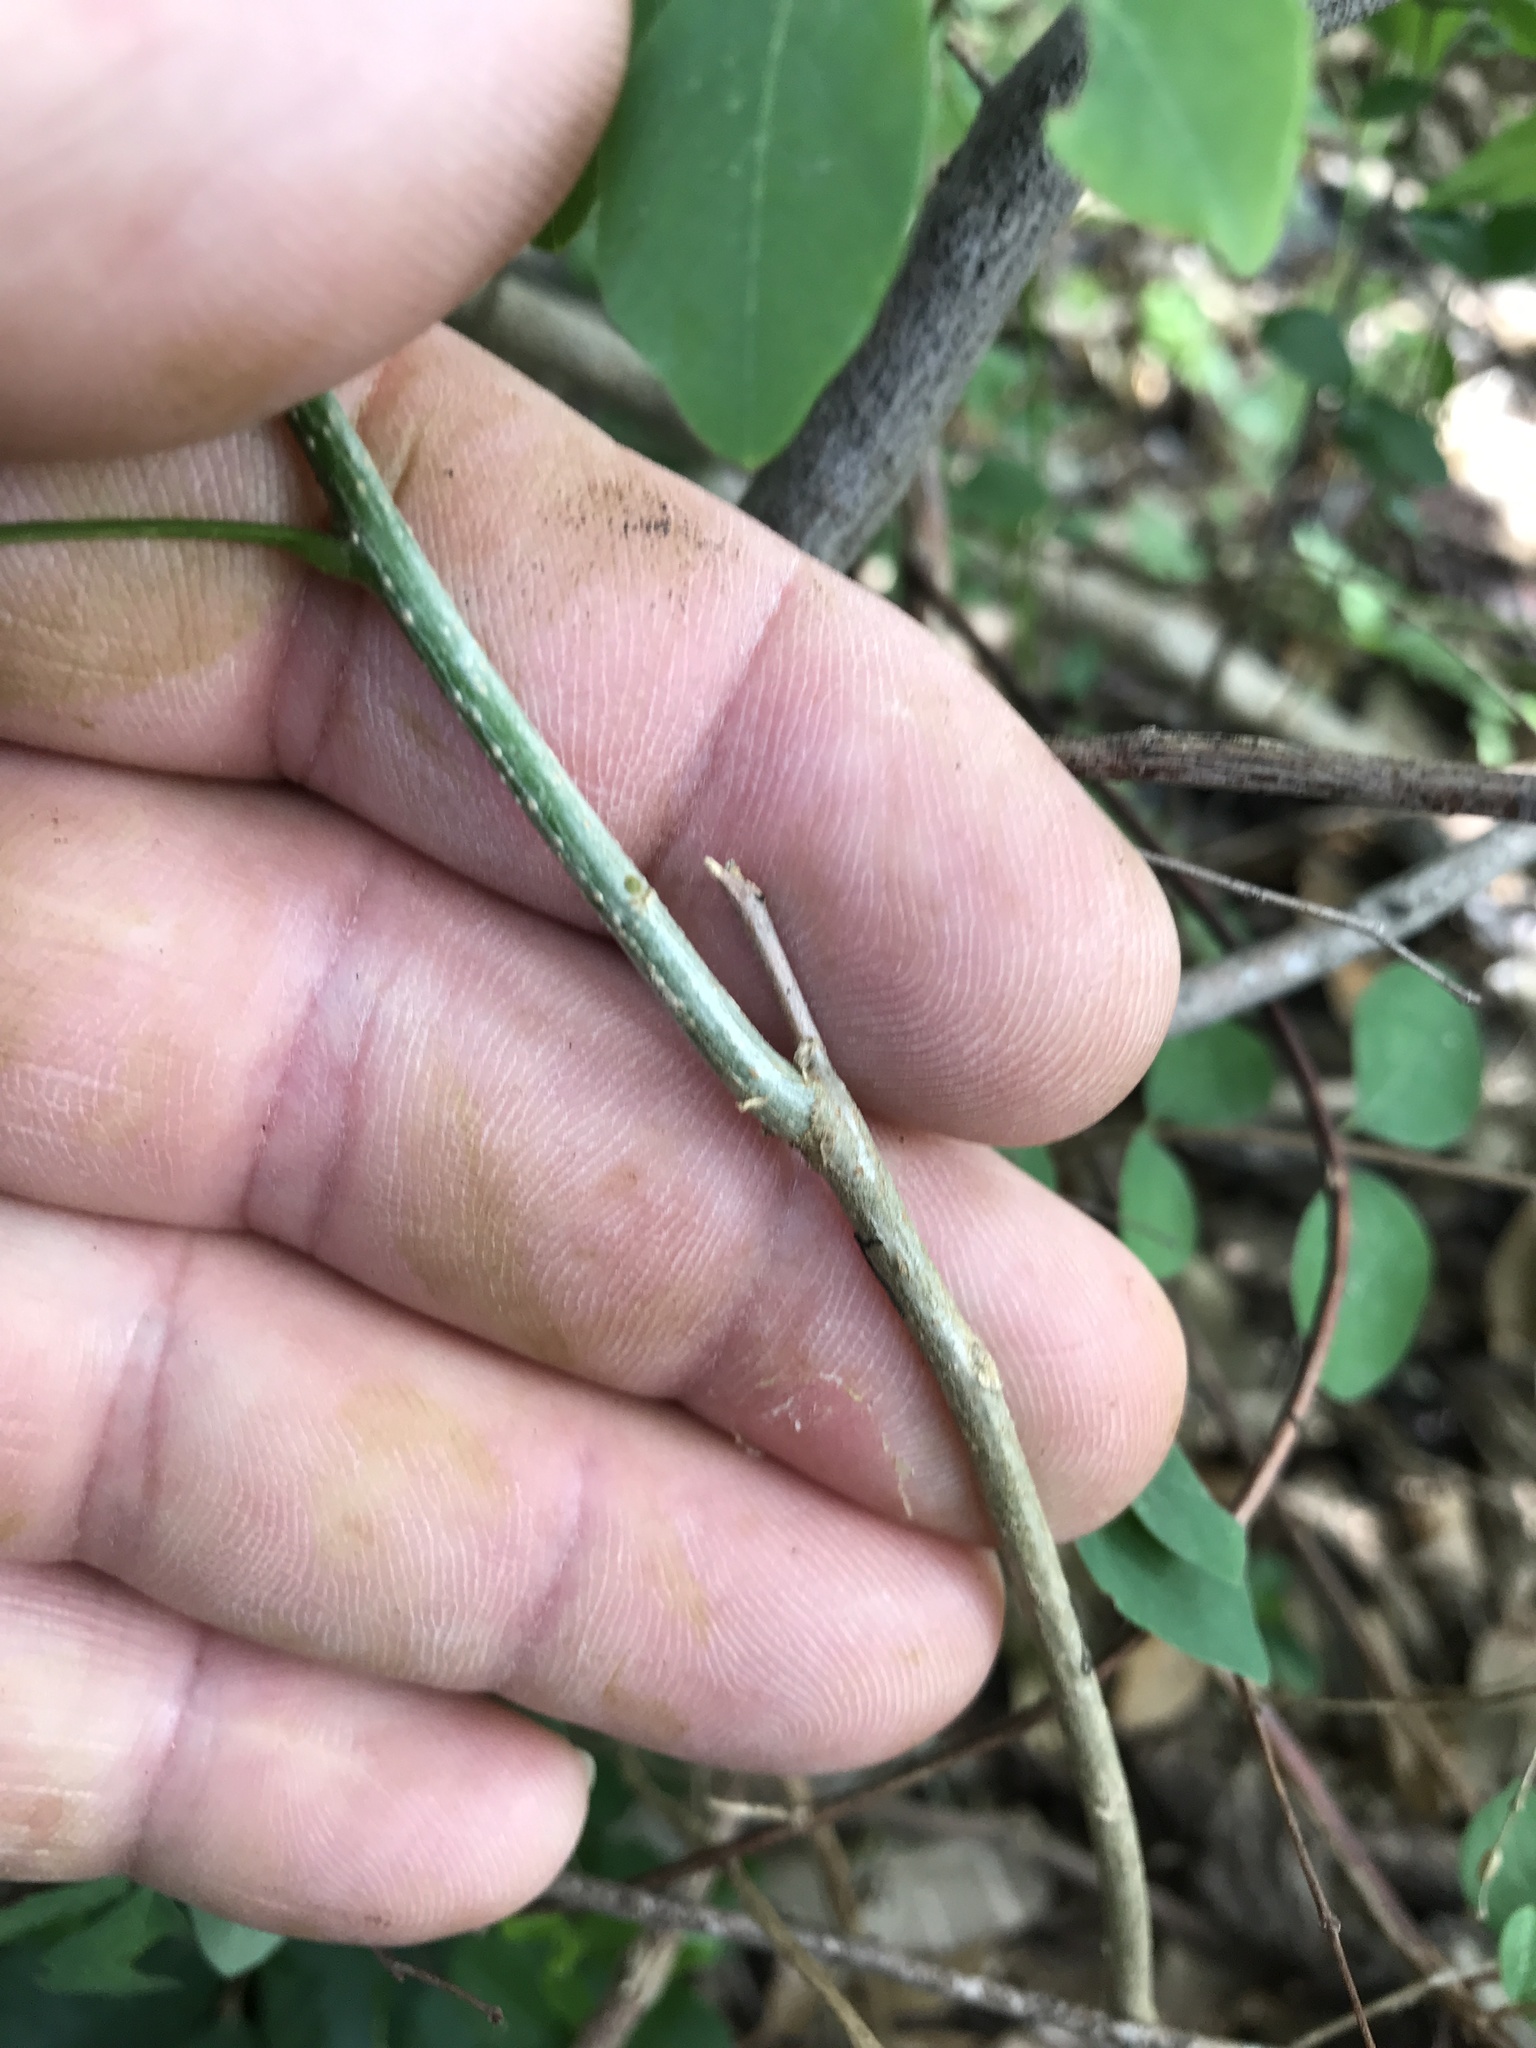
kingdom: Plantae
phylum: Tracheophyta
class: Magnoliopsida
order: Sapindales
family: Sapindaceae
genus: Sapindus
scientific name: Sapindus drummondii
